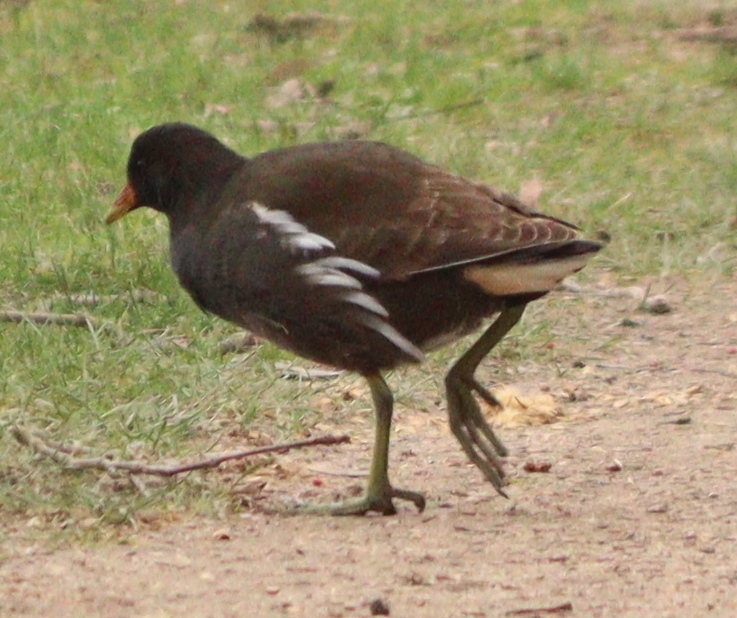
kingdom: Animalia
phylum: Chordata
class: Aves
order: Gruiformes
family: Rallidae
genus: Gallinula
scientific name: Gallinula chloropus
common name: Common moorhen
